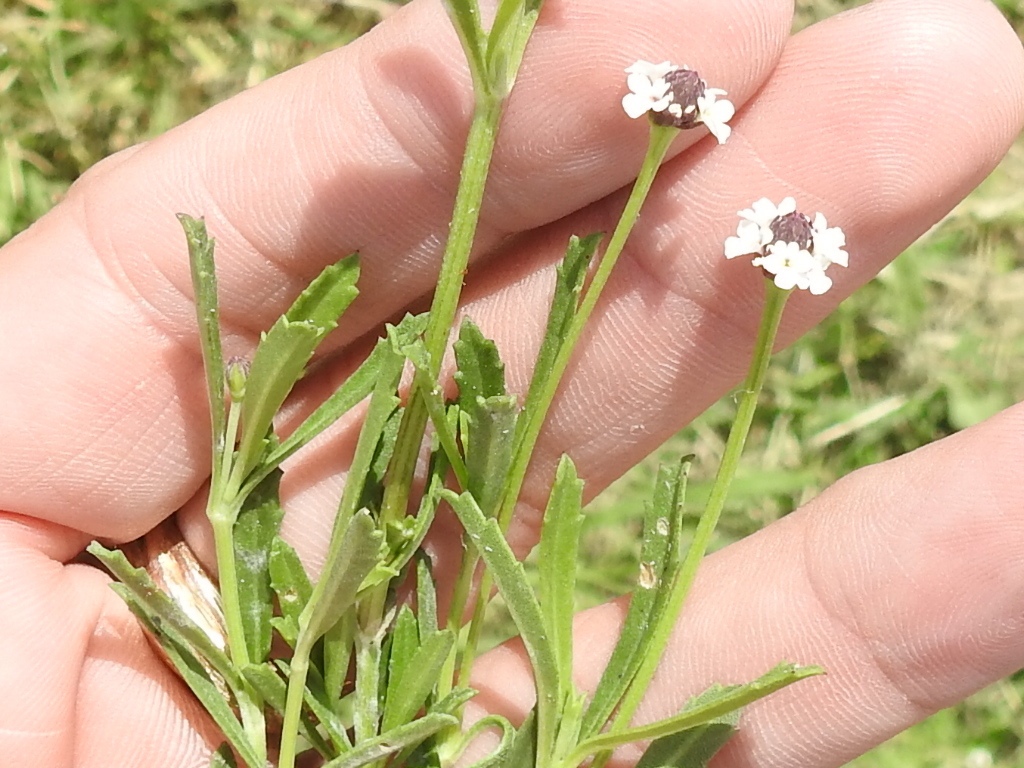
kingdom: Plantae
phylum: Tracheophyta
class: Magnoliopsida
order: Lamiales
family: Verbenaceae
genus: Phyla
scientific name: Phyla nodiflora
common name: Frogfruit
